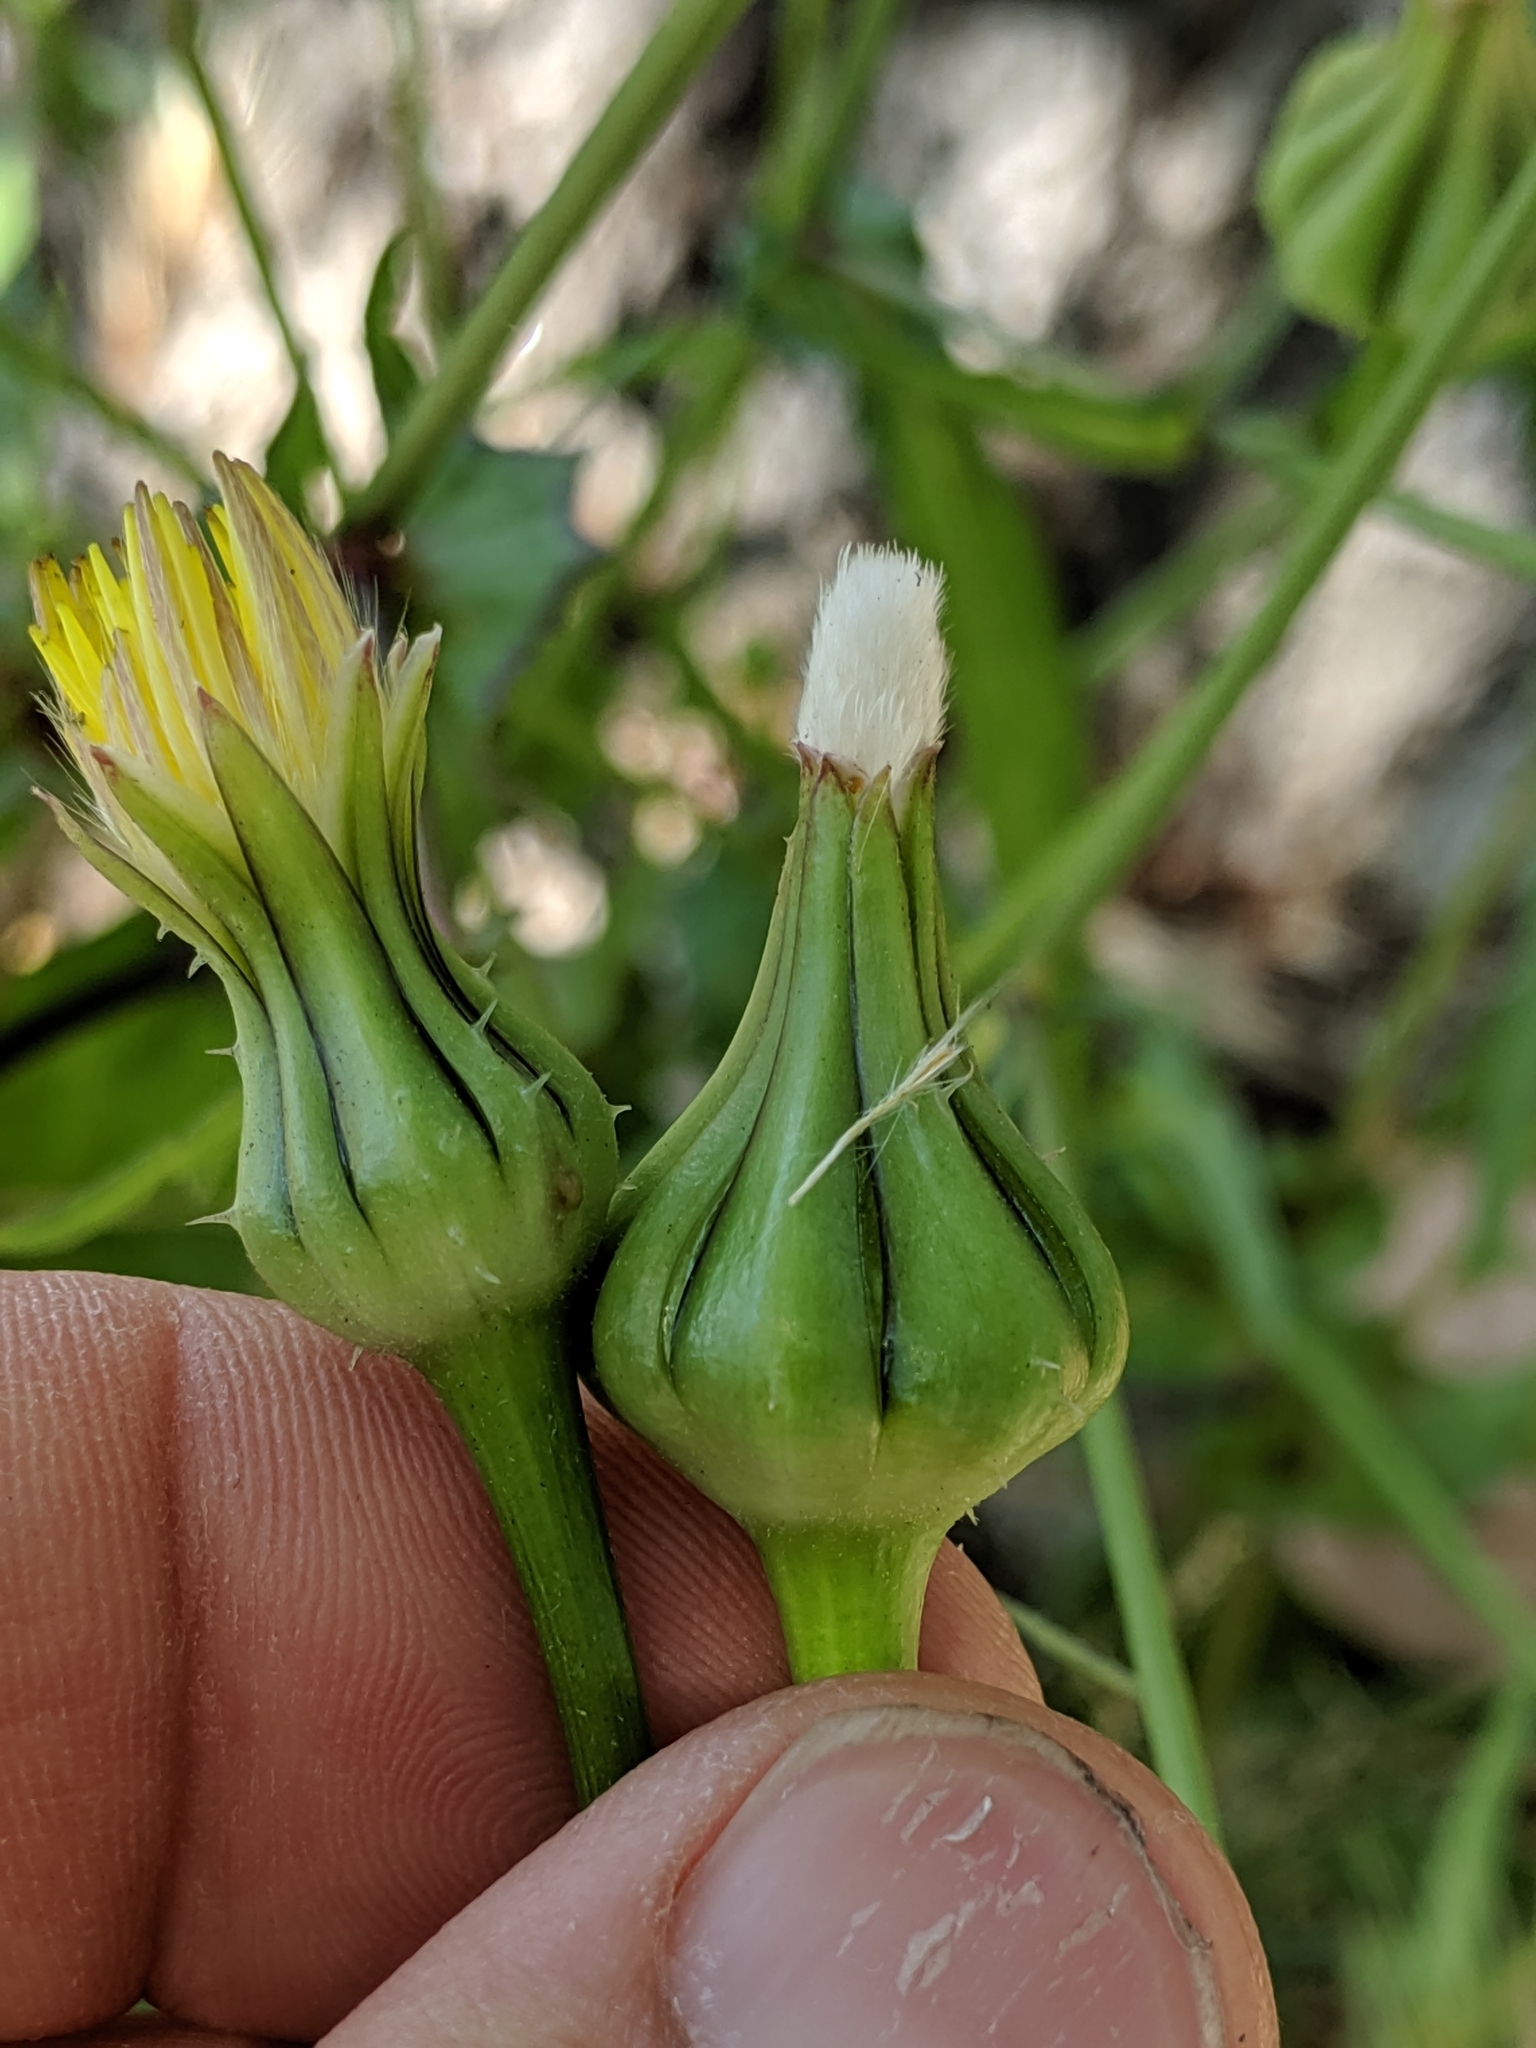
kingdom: Plantae
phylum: Tracheophyta
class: Magnoliopsida
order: Asterales
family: Asteraceae
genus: Urospermum
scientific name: Urospermum picroides
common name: False hawkbit
